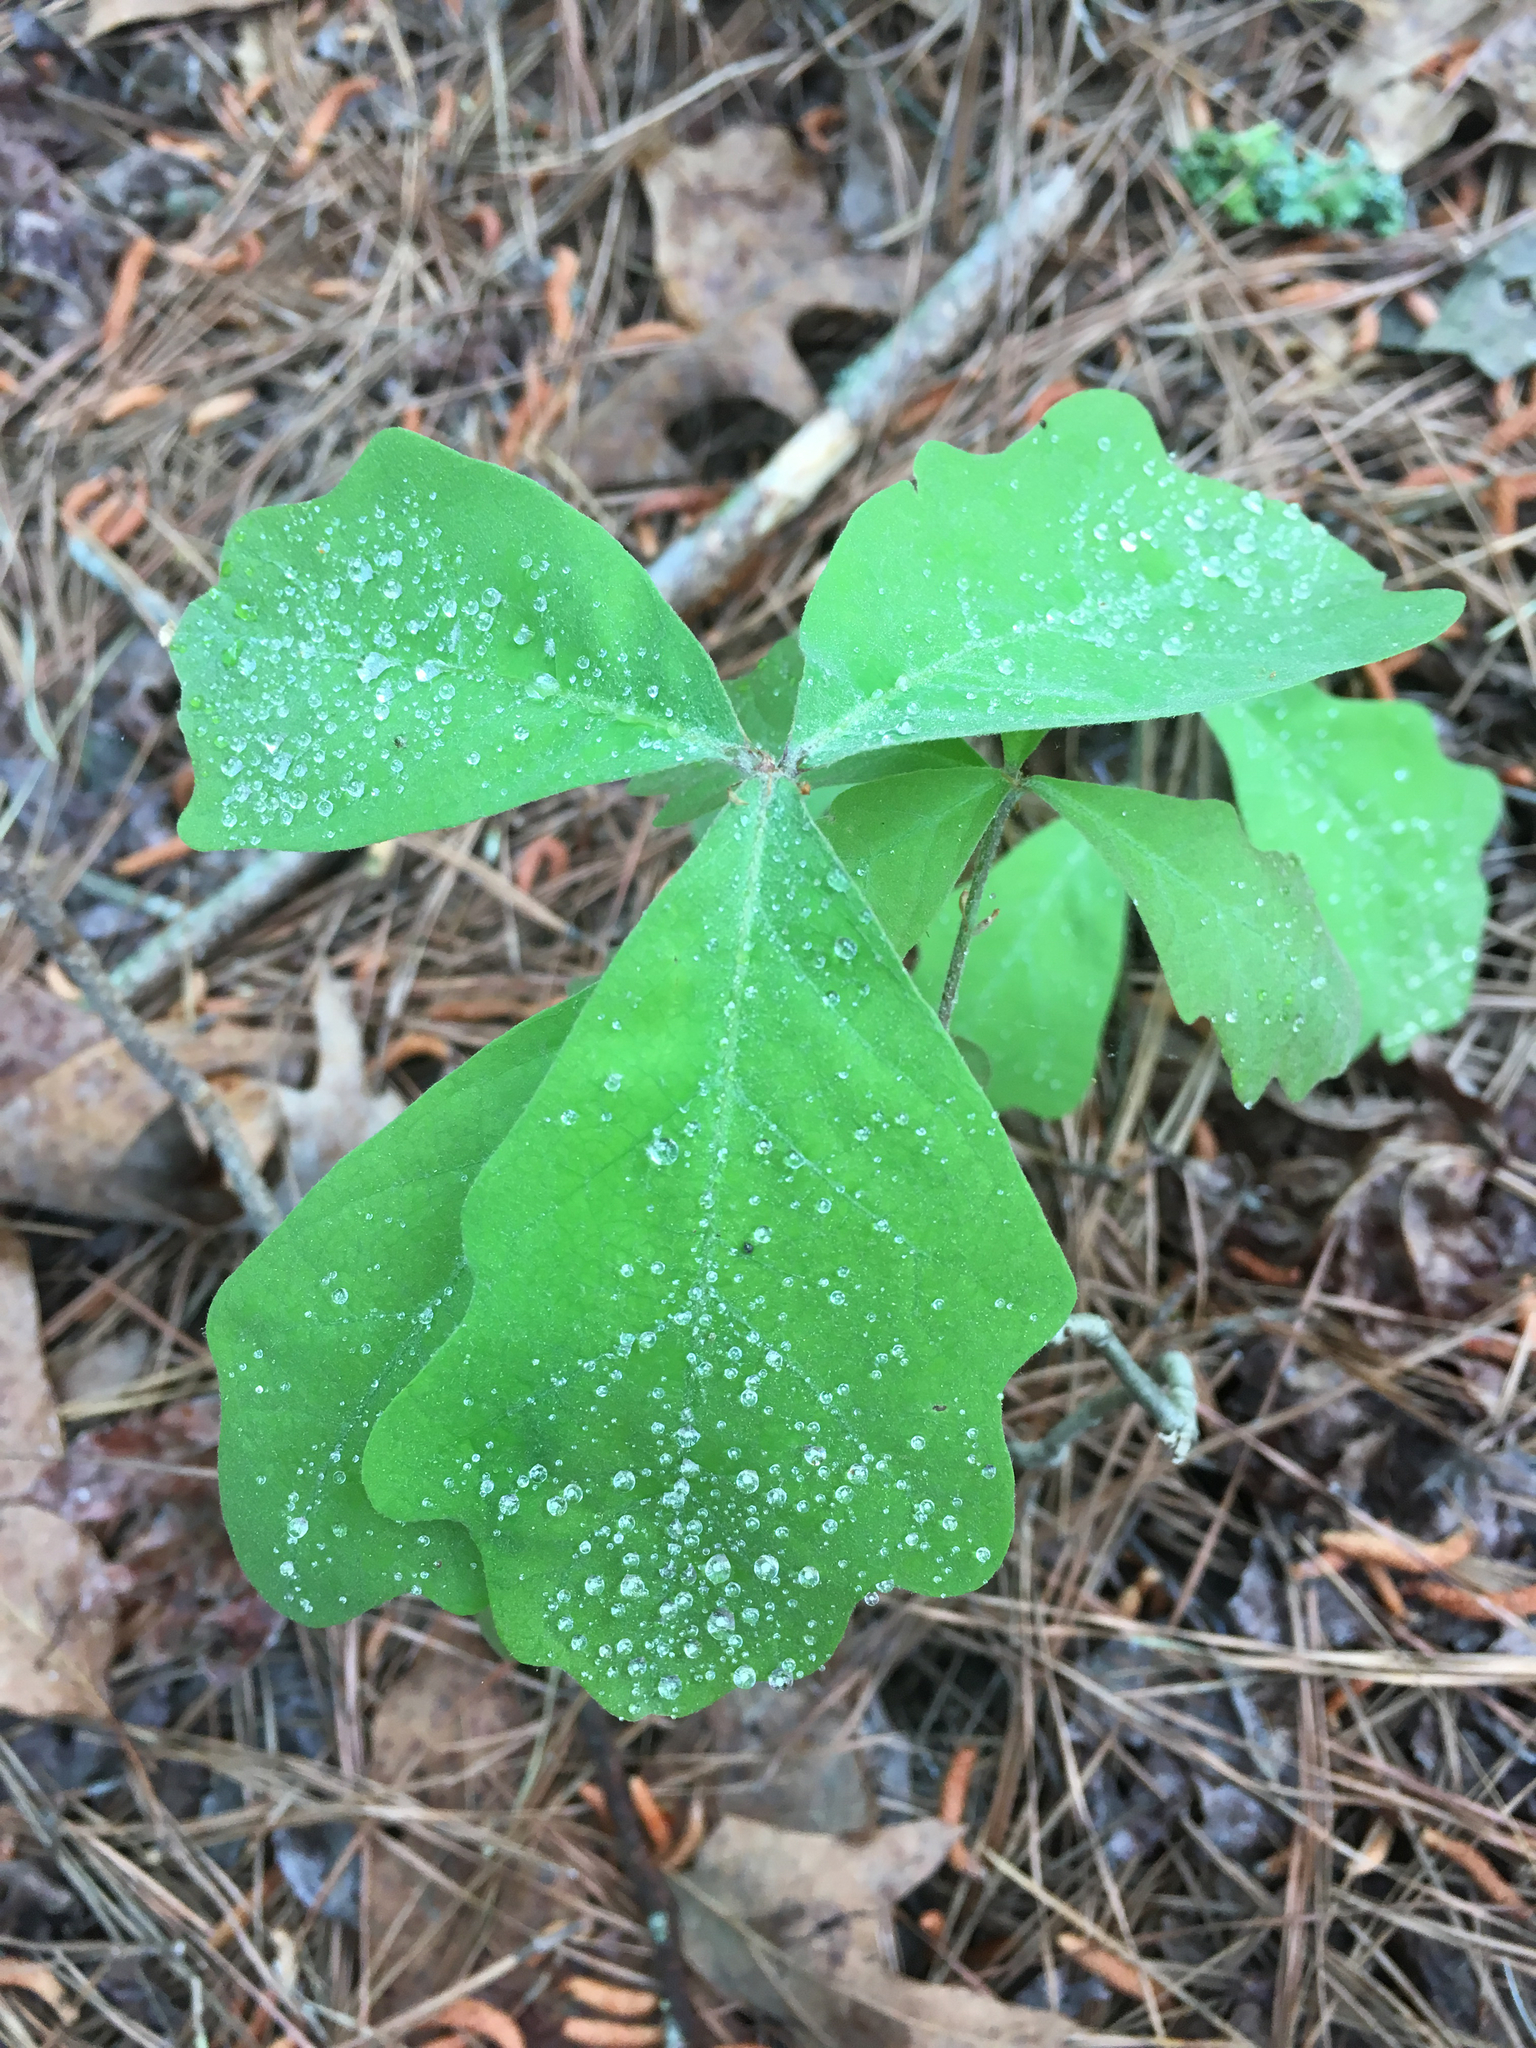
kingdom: Plantae
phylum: Tracheophyta
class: Magnoliopsida
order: Fagales
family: Fagaceae
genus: Quercus
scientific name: Quercus alba
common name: White oak
